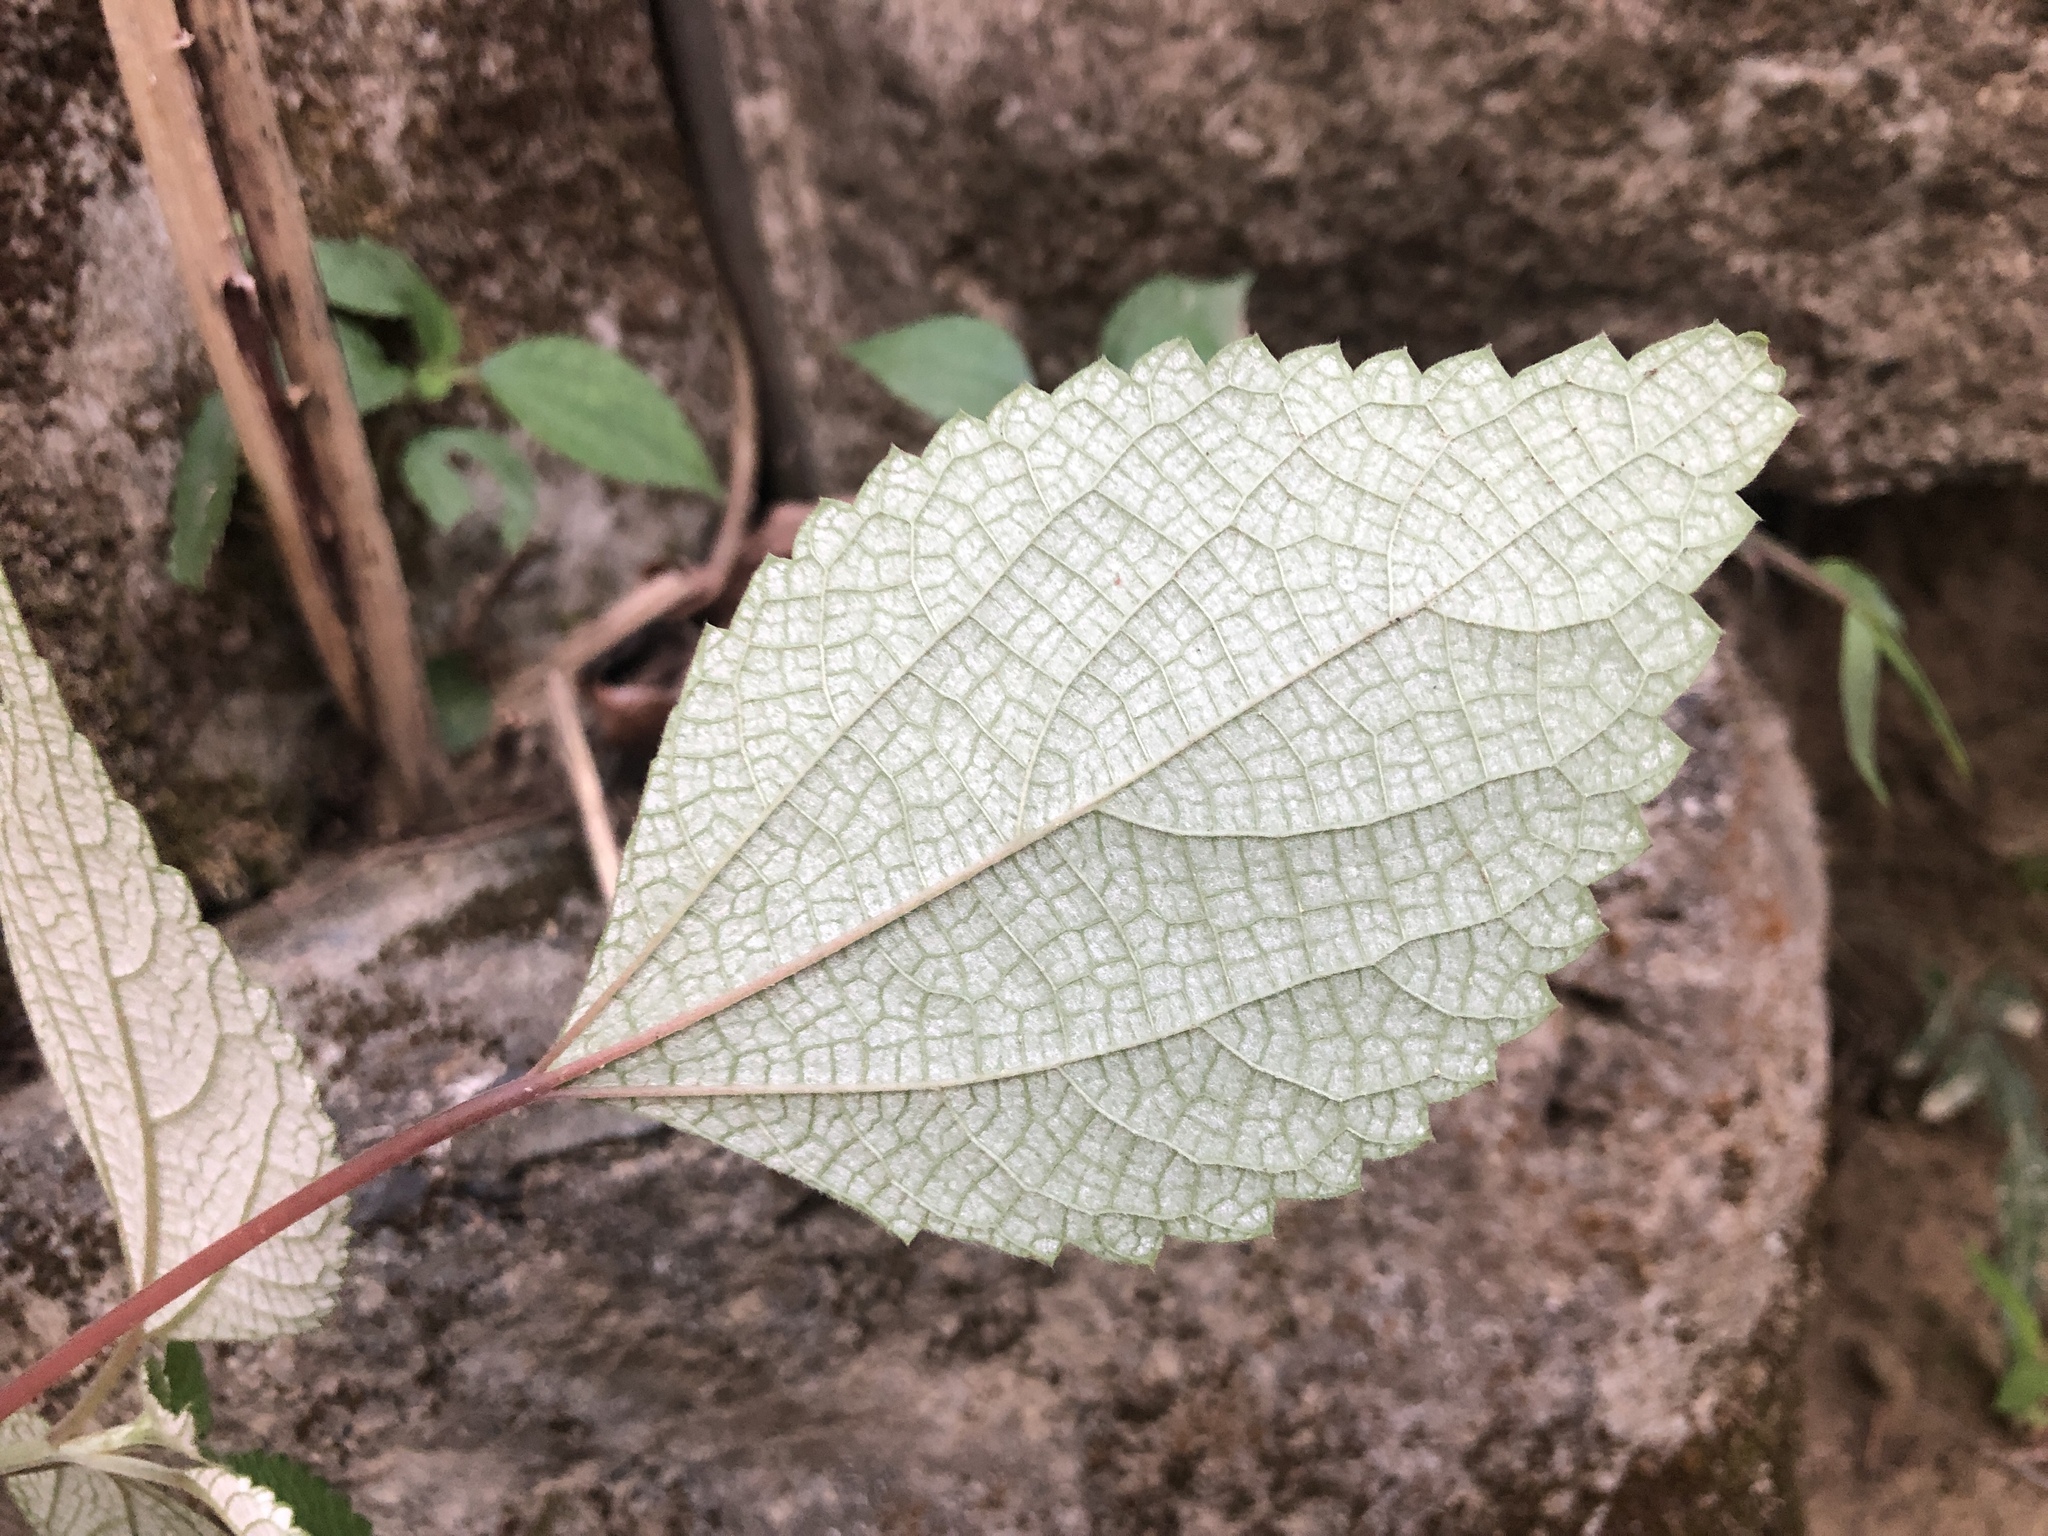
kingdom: Plantae
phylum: Tracheophyta
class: Magnoliopsida
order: Rosales
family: Urticaceae
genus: Boehmeria
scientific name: Boehmeria nivea
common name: Ramie chinese grass
